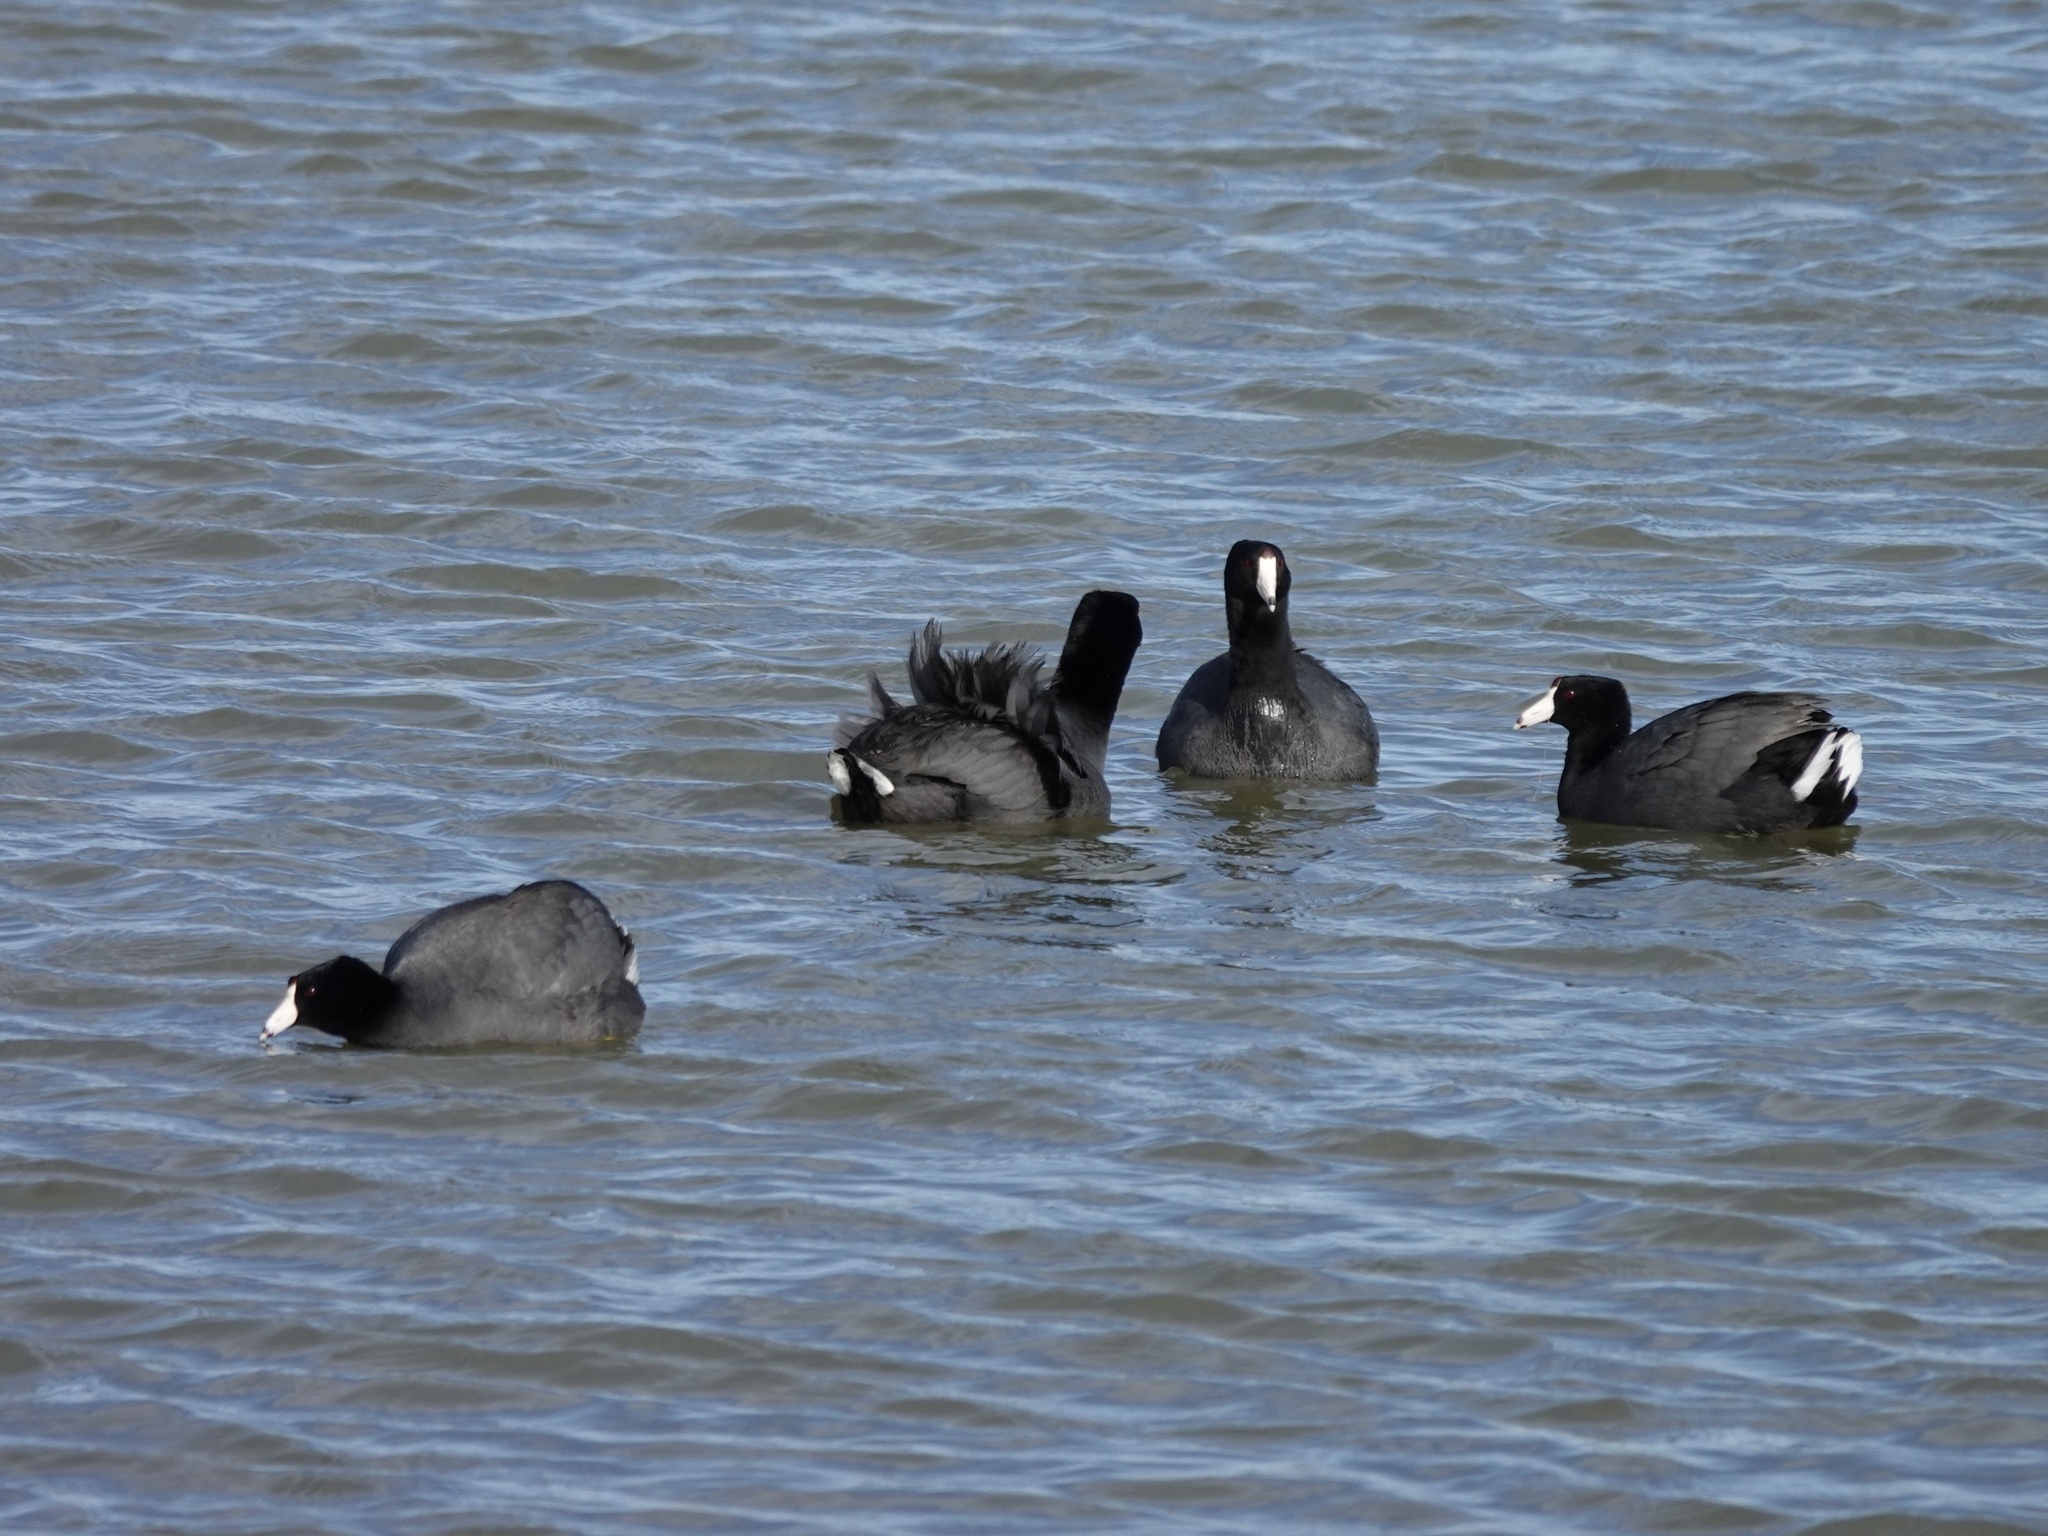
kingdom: Animalia
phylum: Chordata
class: Aves
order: Gruiformes
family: Rallidae
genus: Fulica
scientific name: Fulica americana
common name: American coot
